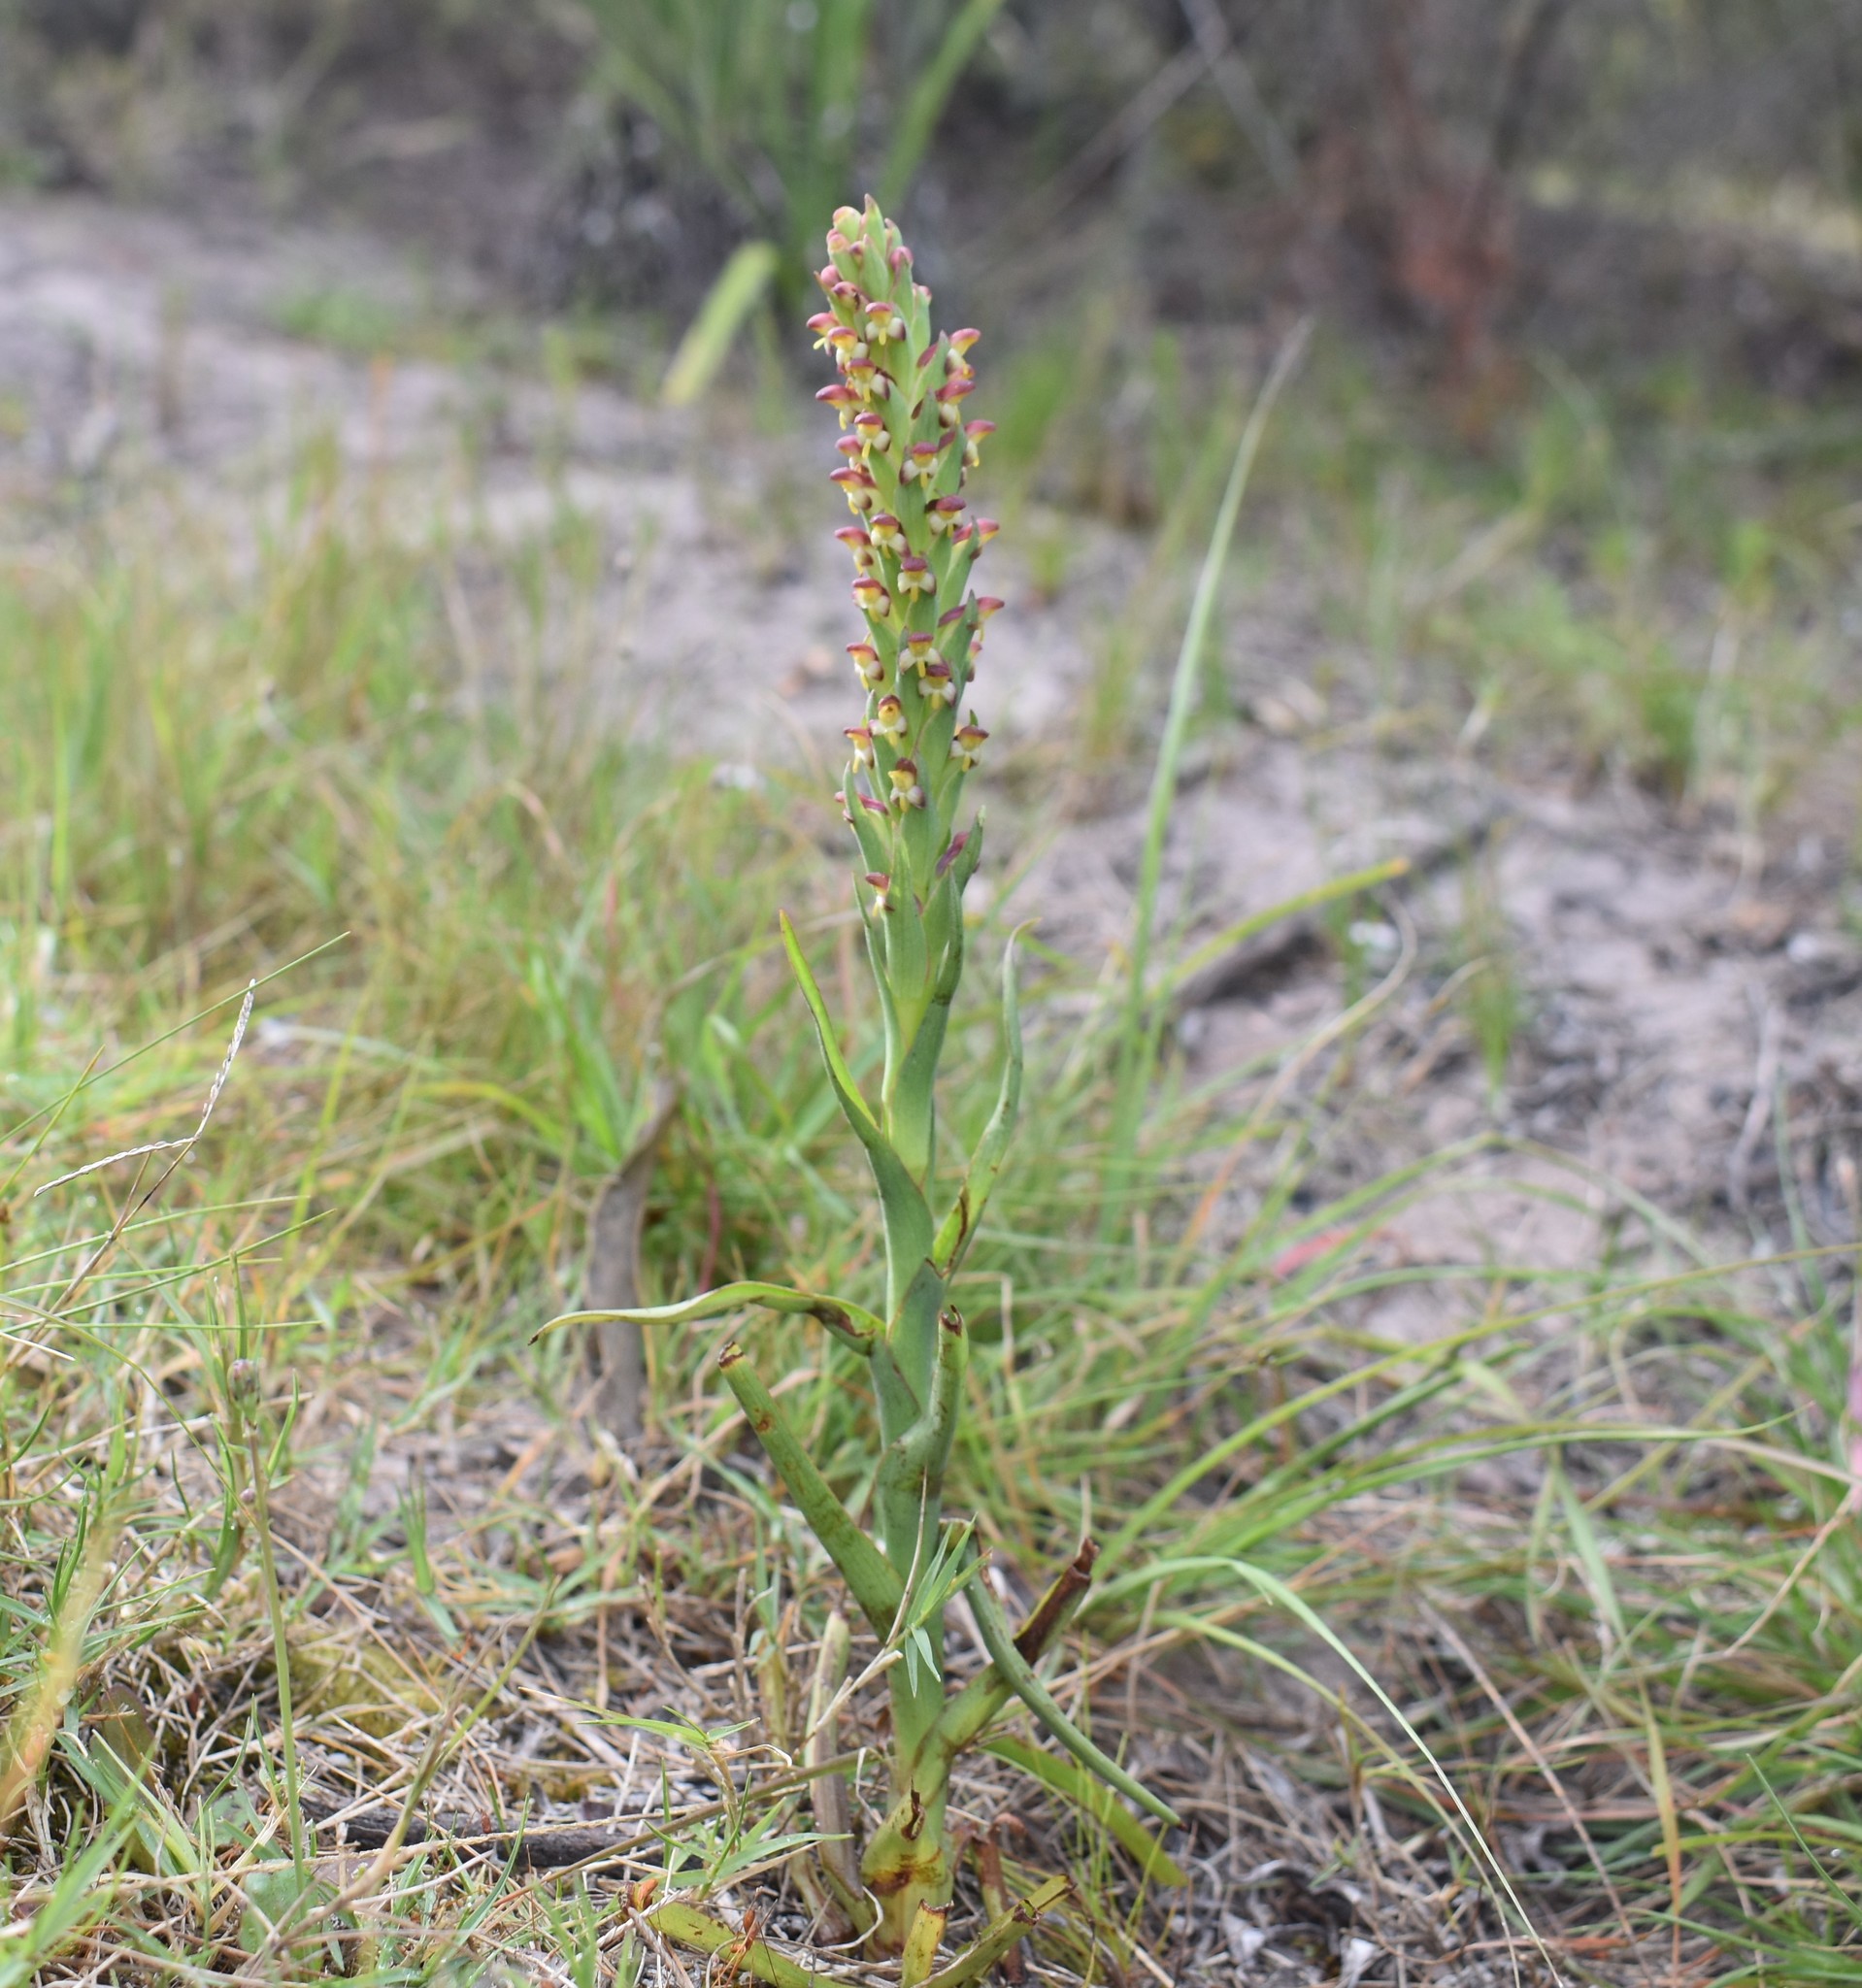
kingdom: Plantae
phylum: Tracheophyta
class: Liliopsida
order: Asparagales
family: Orchidaceae
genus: Disa
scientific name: Disa bracteata
